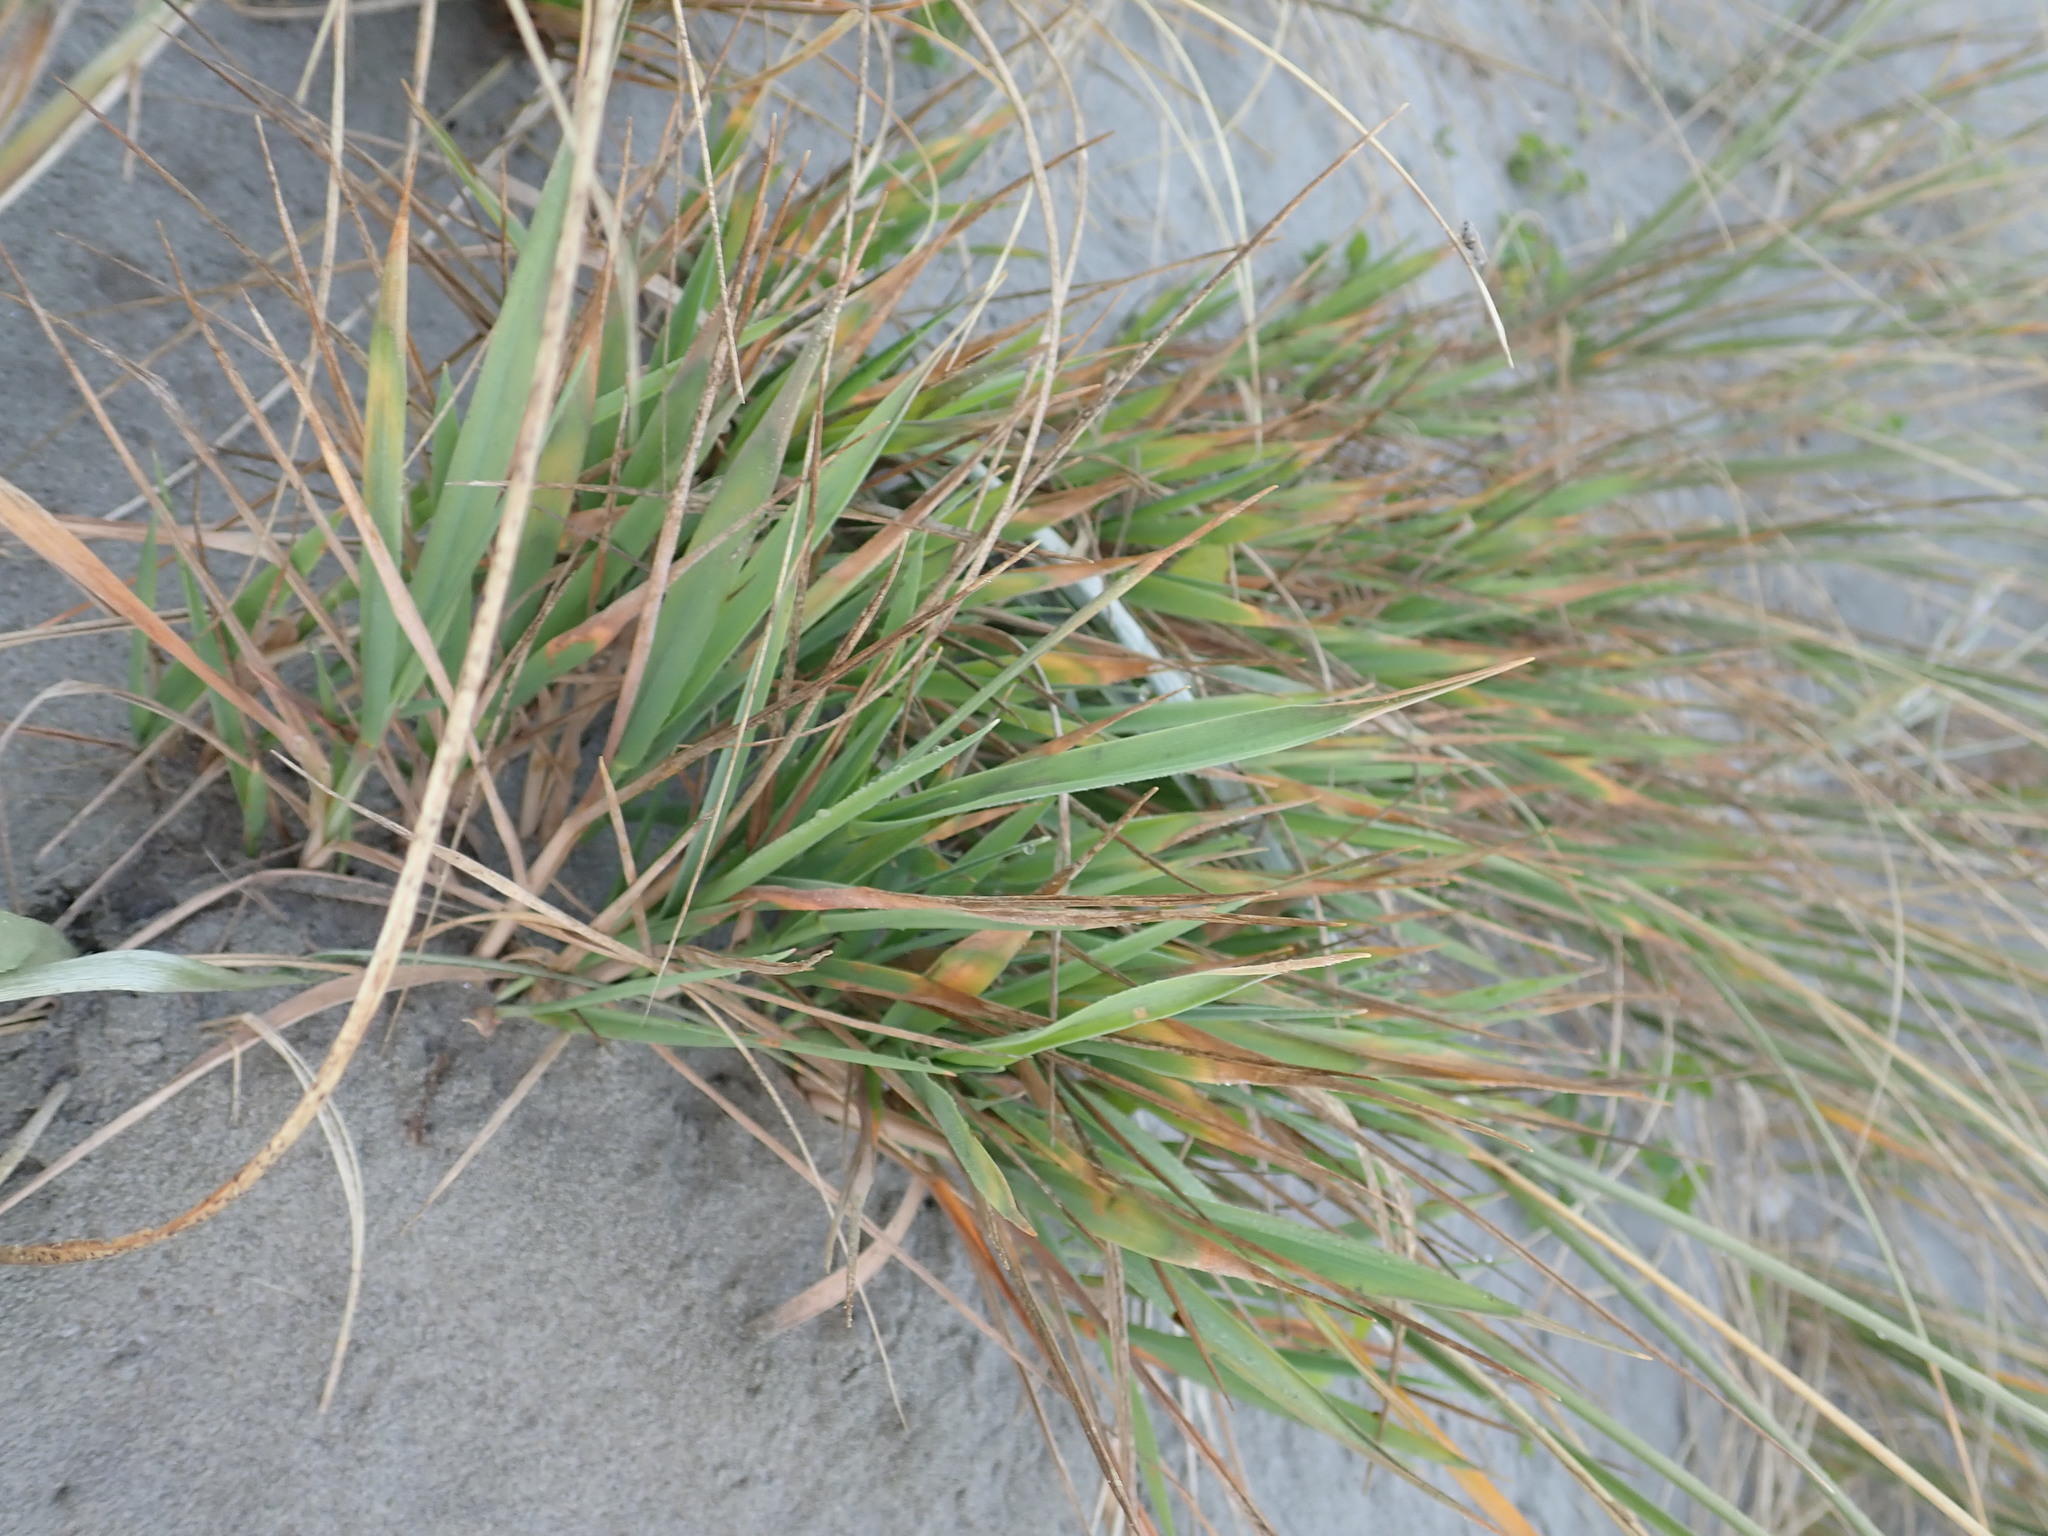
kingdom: Plantae
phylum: Tracheophyta
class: Liliopsida
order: Poales
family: Poaceae
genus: Lachnagrostis
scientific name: Lachnagrostis billardierei
